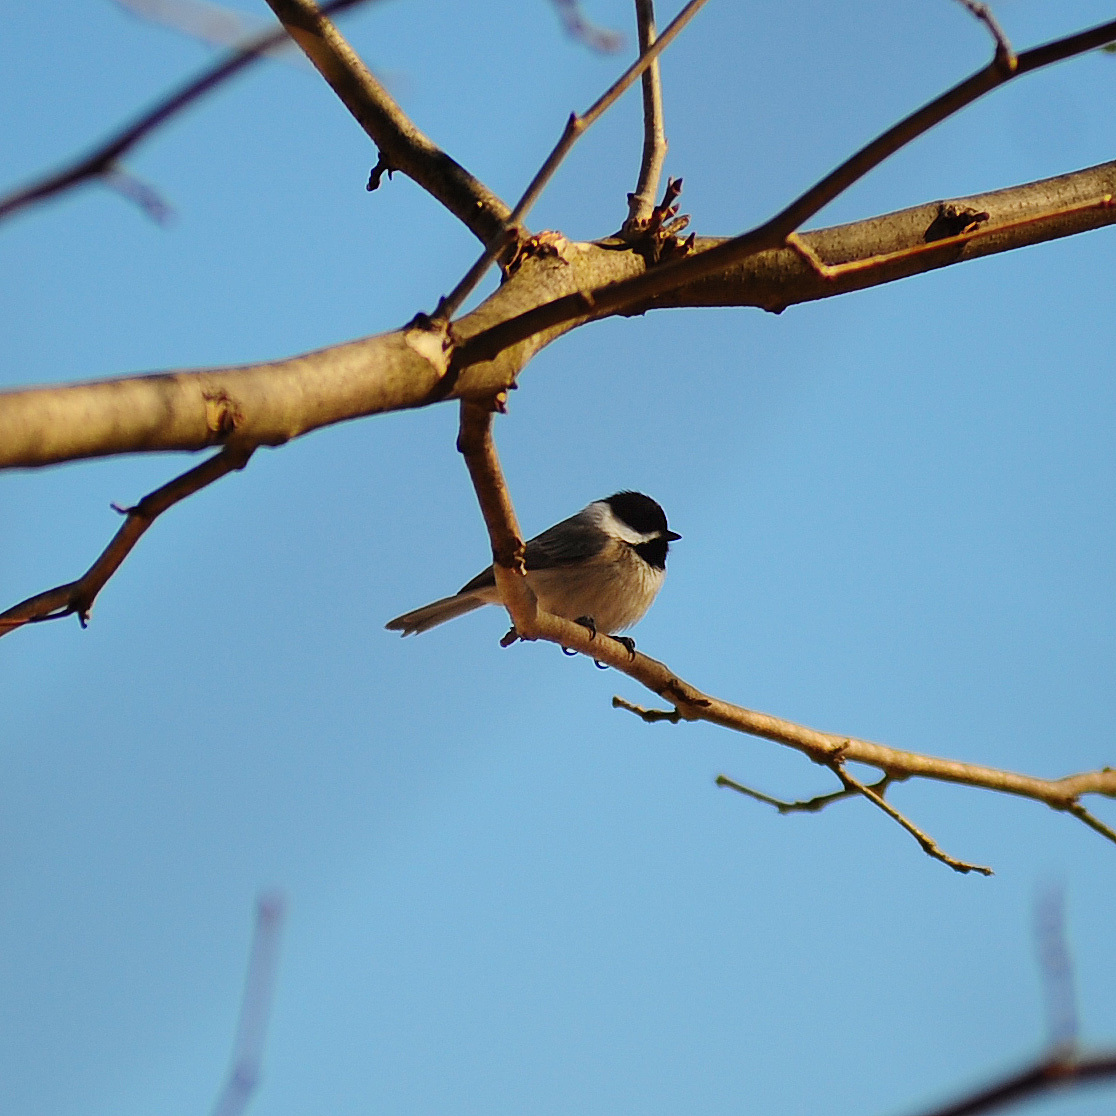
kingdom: Animalia
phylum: Chordata
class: Aves
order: Passeriformes
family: Paridae
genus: Poecile
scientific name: Poecile carolinensis
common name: Carolina chickadee
